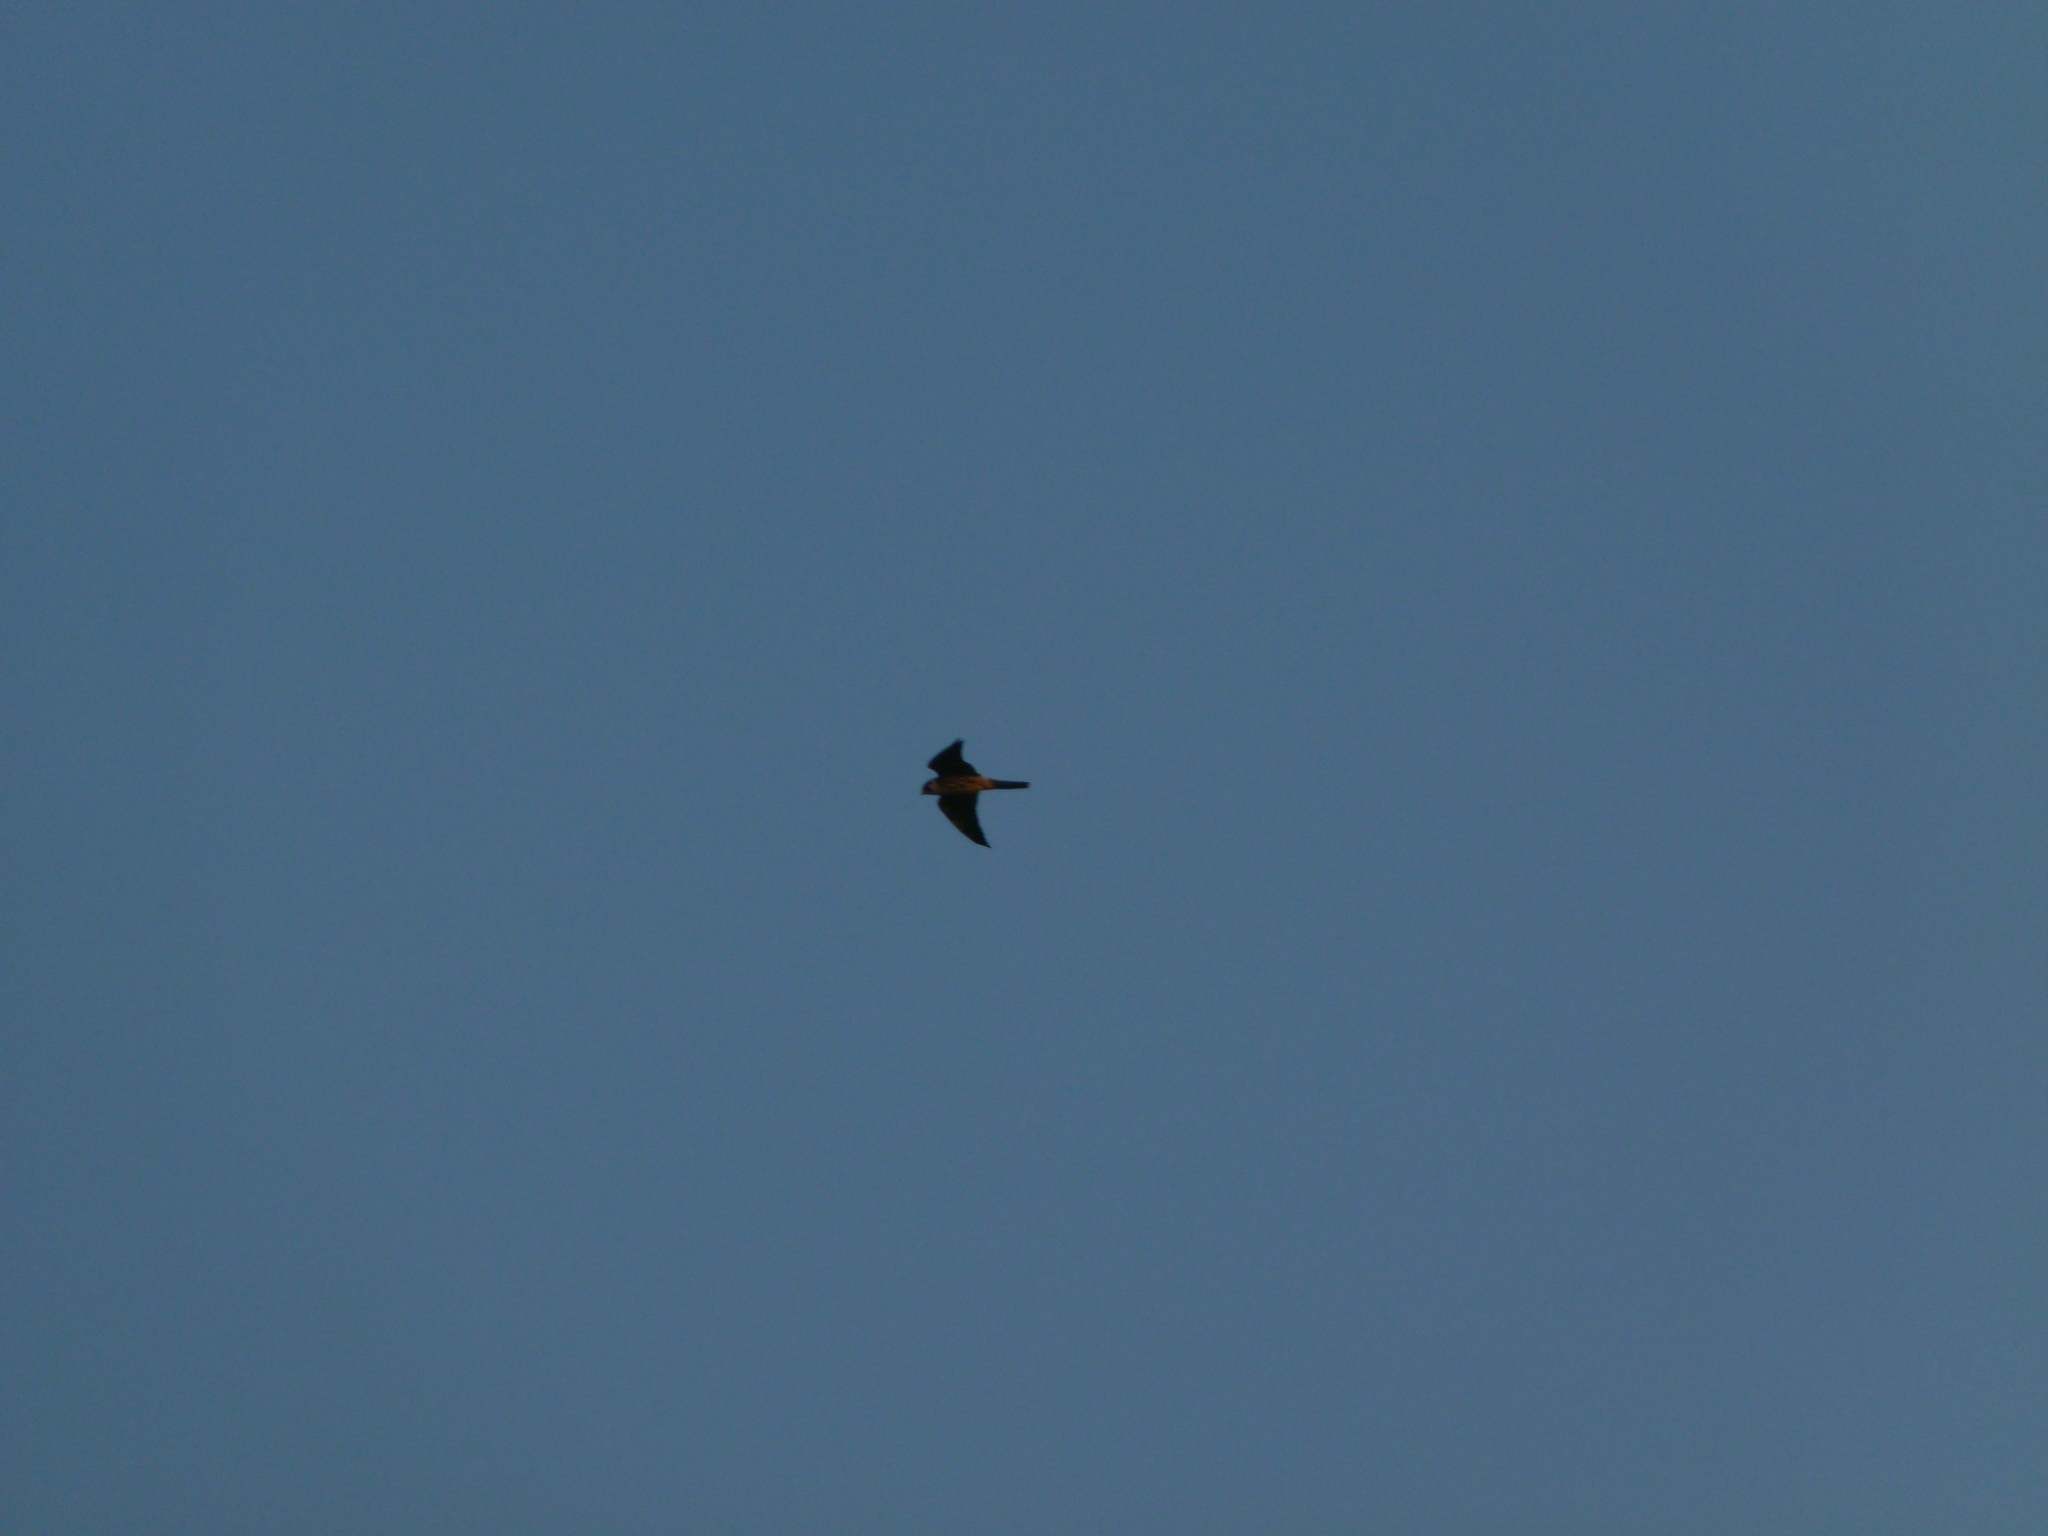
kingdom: Animalia
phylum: Chordata
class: Aves
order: Falconiformes
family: Falconidae
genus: Falco
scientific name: Falco subbuteo
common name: Eurasian hobby
